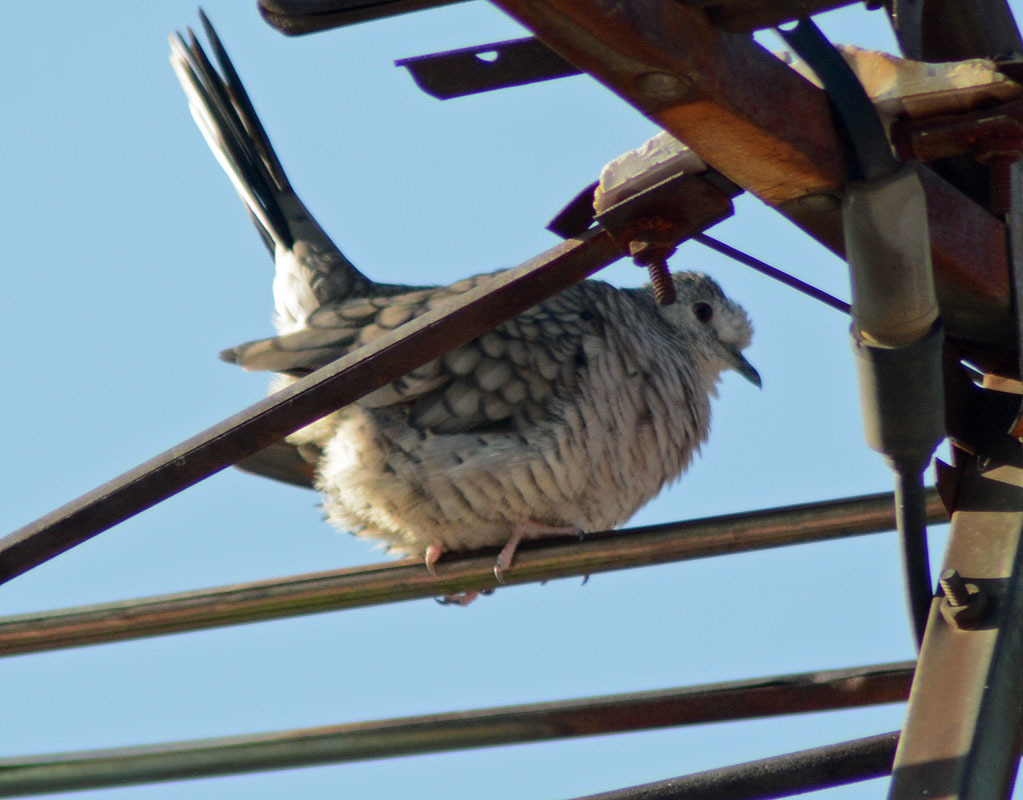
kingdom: Animalia
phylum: Chordata
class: Aves
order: Columbiformes
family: Columbidae
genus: Columbina
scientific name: Columbina inca
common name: Inca dove
